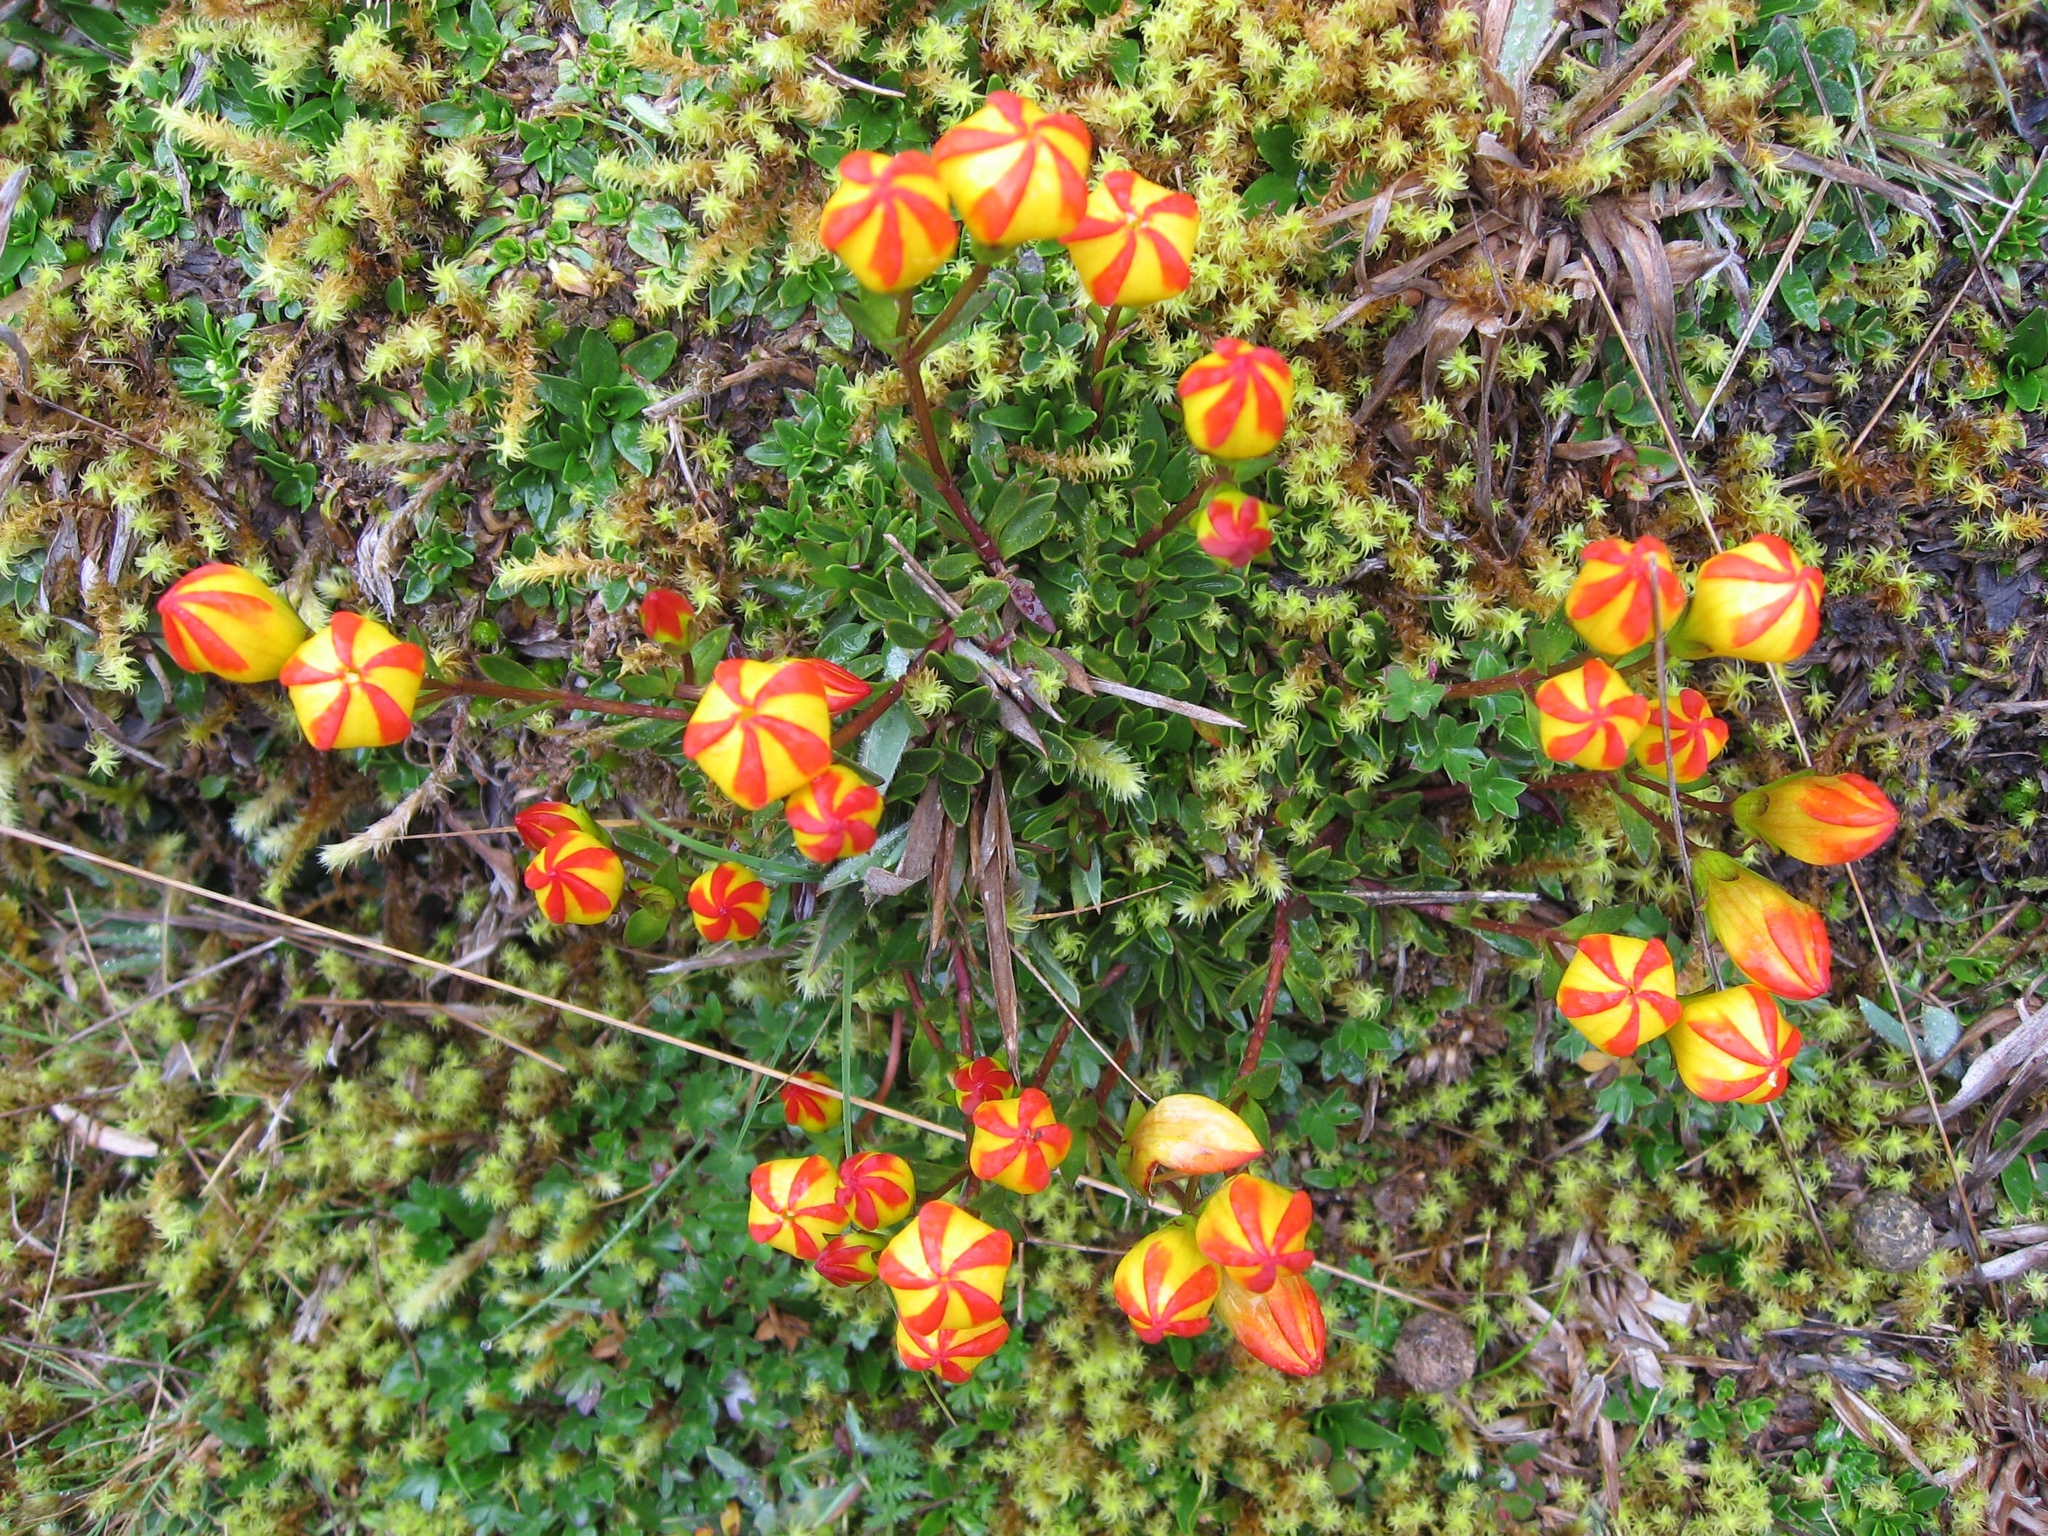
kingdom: Plantae
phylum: Tracheophyta
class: Magnoliopsida
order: Gentianales
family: Gentianaceae
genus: Gentianella
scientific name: Gentianella hirculus
